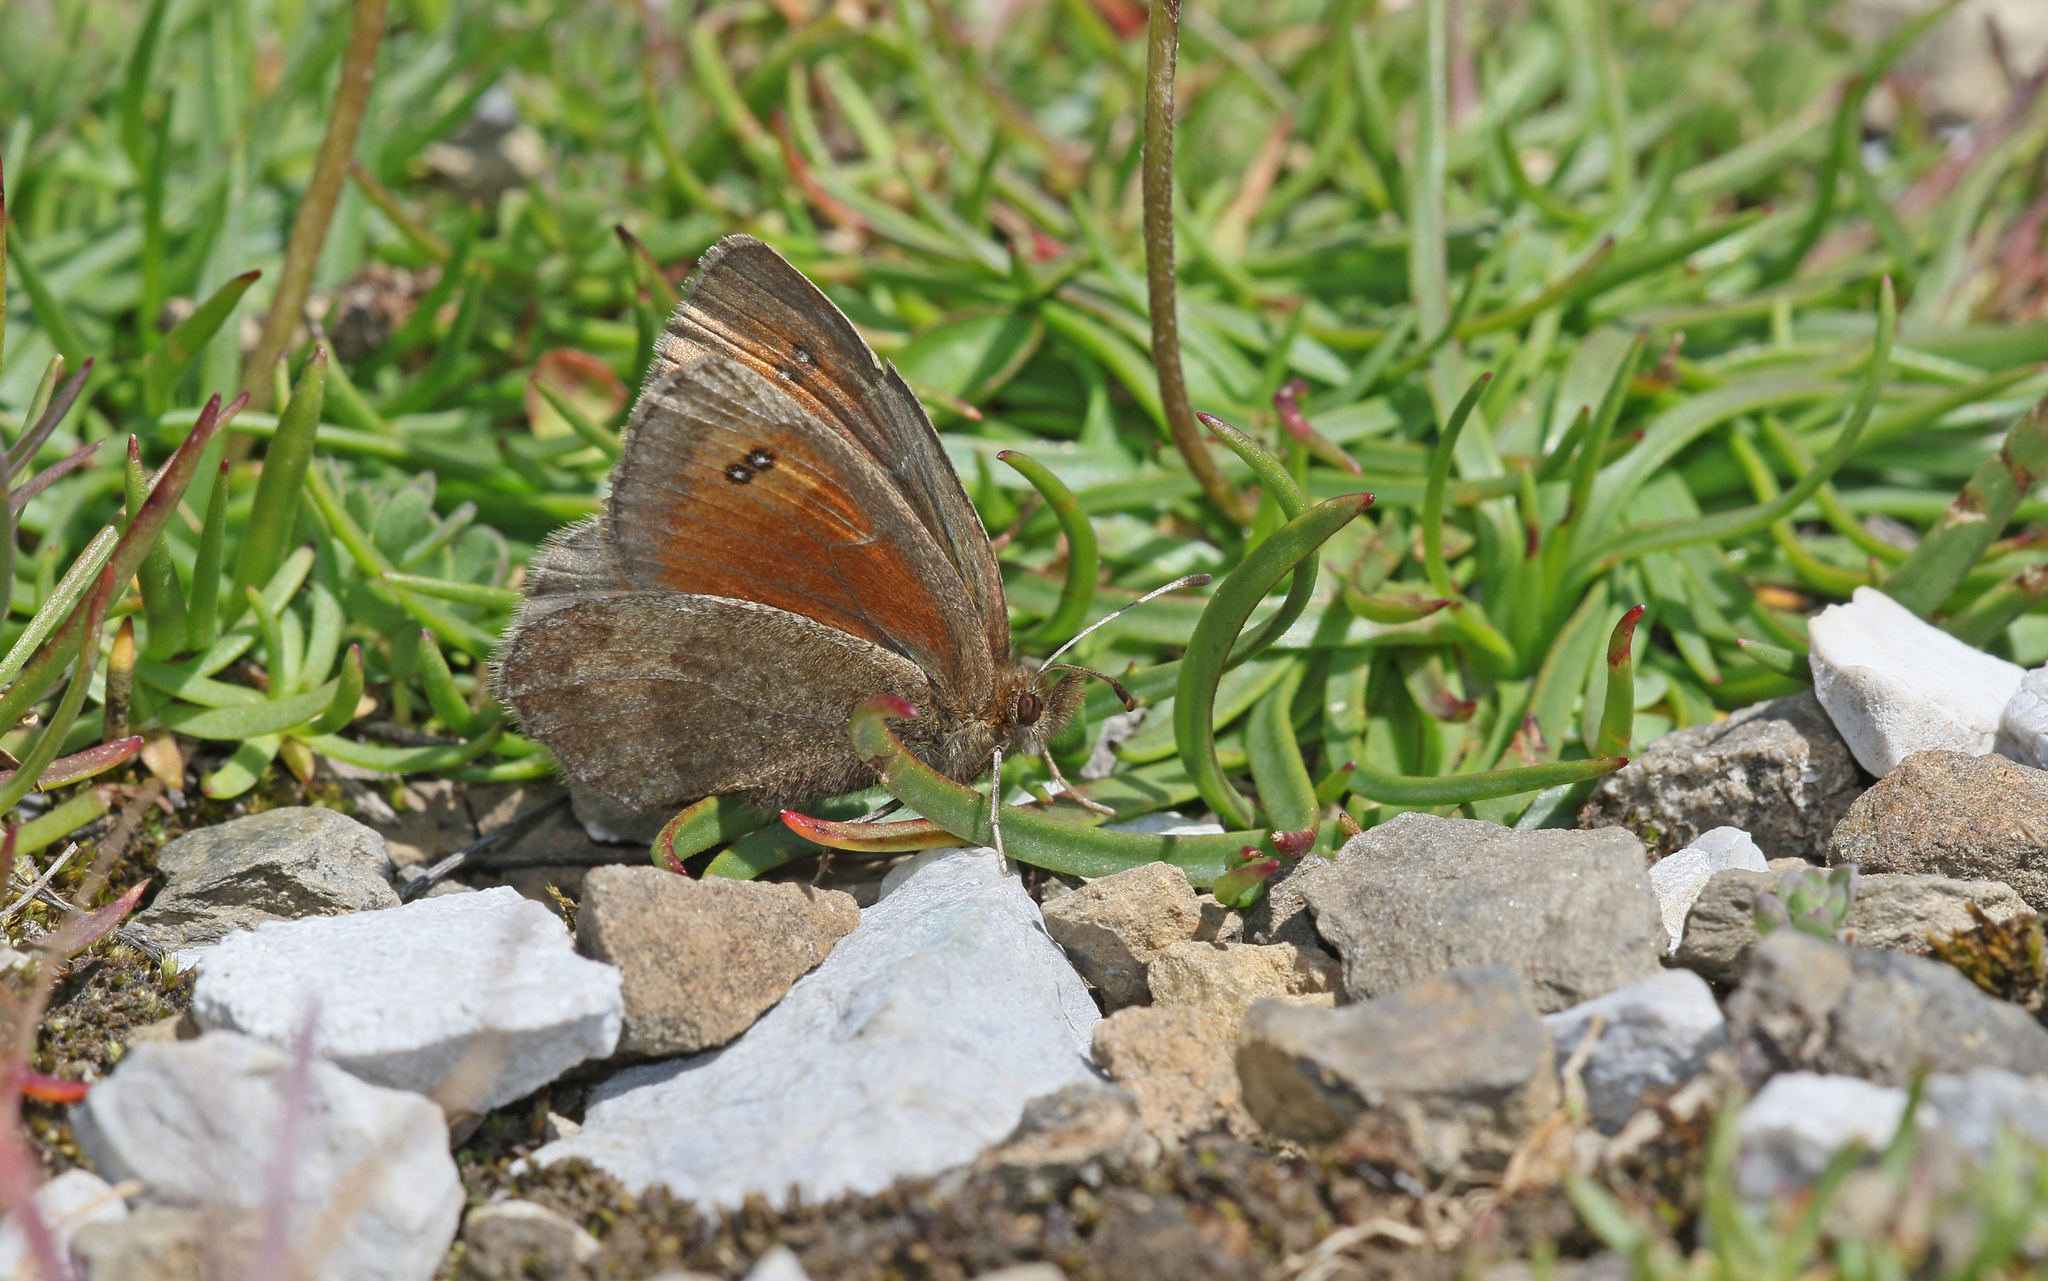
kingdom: Animalia
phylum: Arthropoda
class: Insecta
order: Lepidoptera
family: Nymphalidae
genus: Erebia
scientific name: Erebia mnestra
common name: Mnestra’s ringlet
